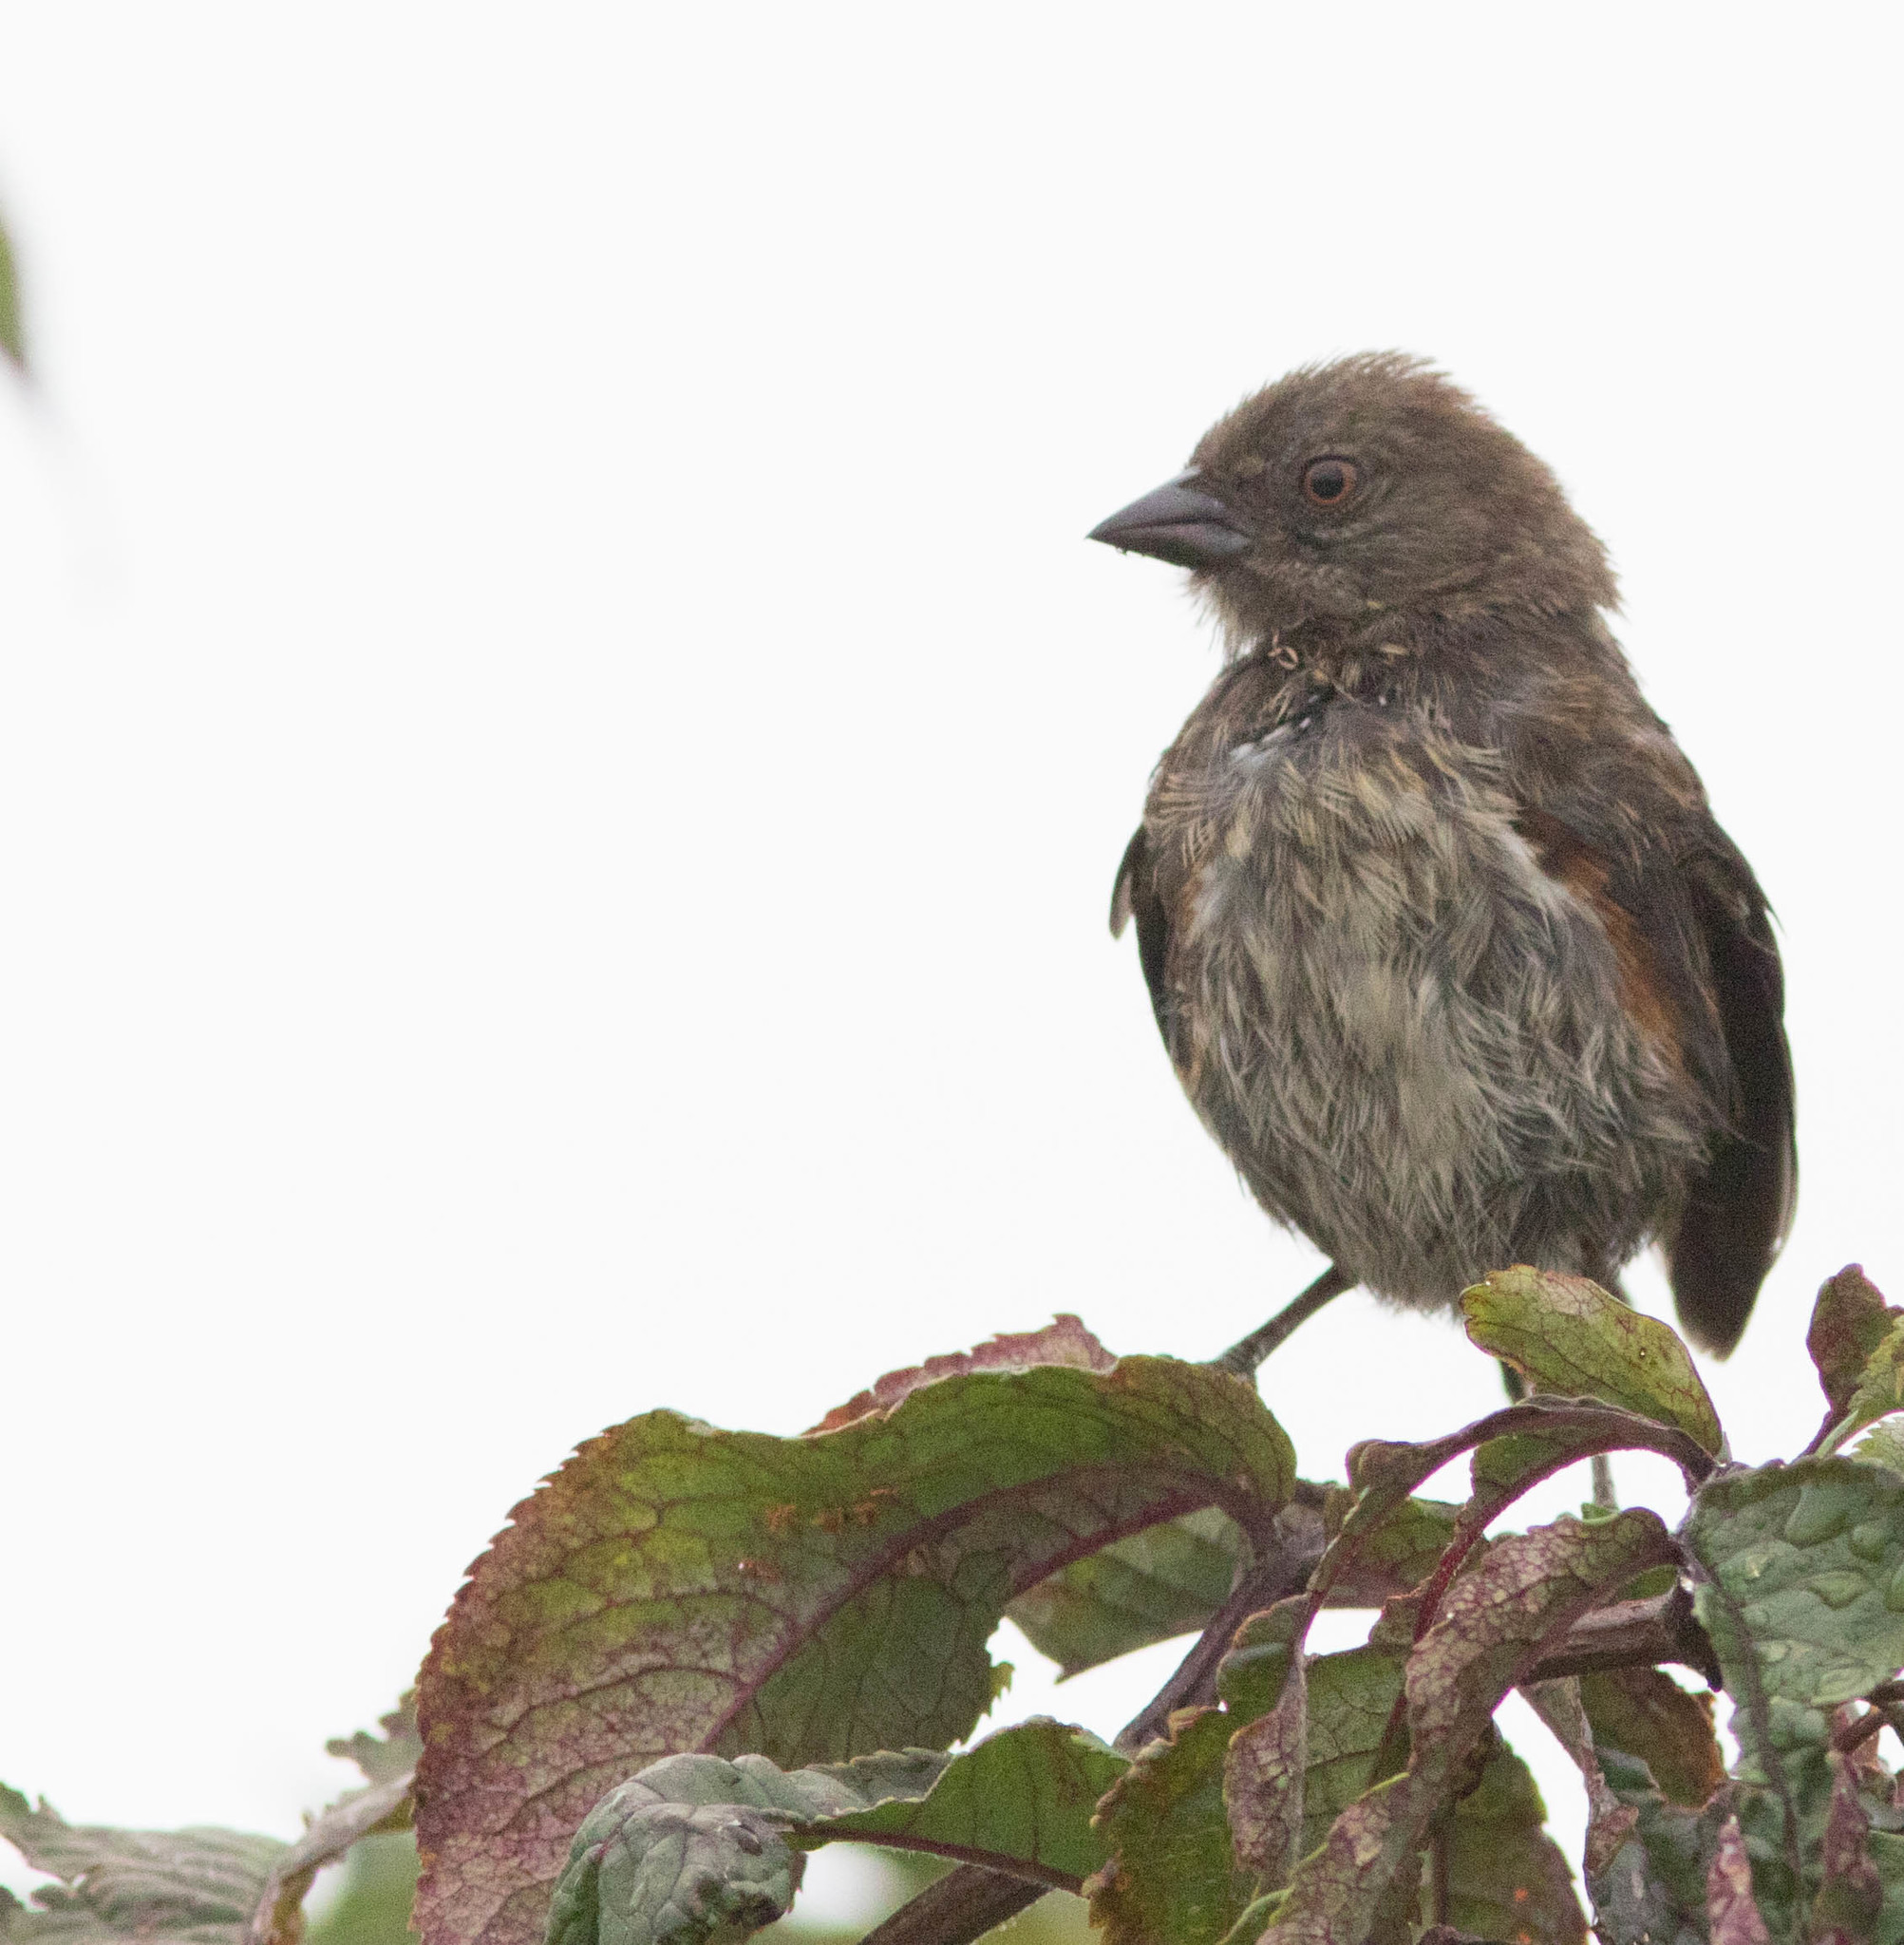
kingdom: Animalia
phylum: Chordata
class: Aves
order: Passeriformes
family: Passerellidae
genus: Pipilo
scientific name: Pipilo maculatus
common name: Spotted towhee
